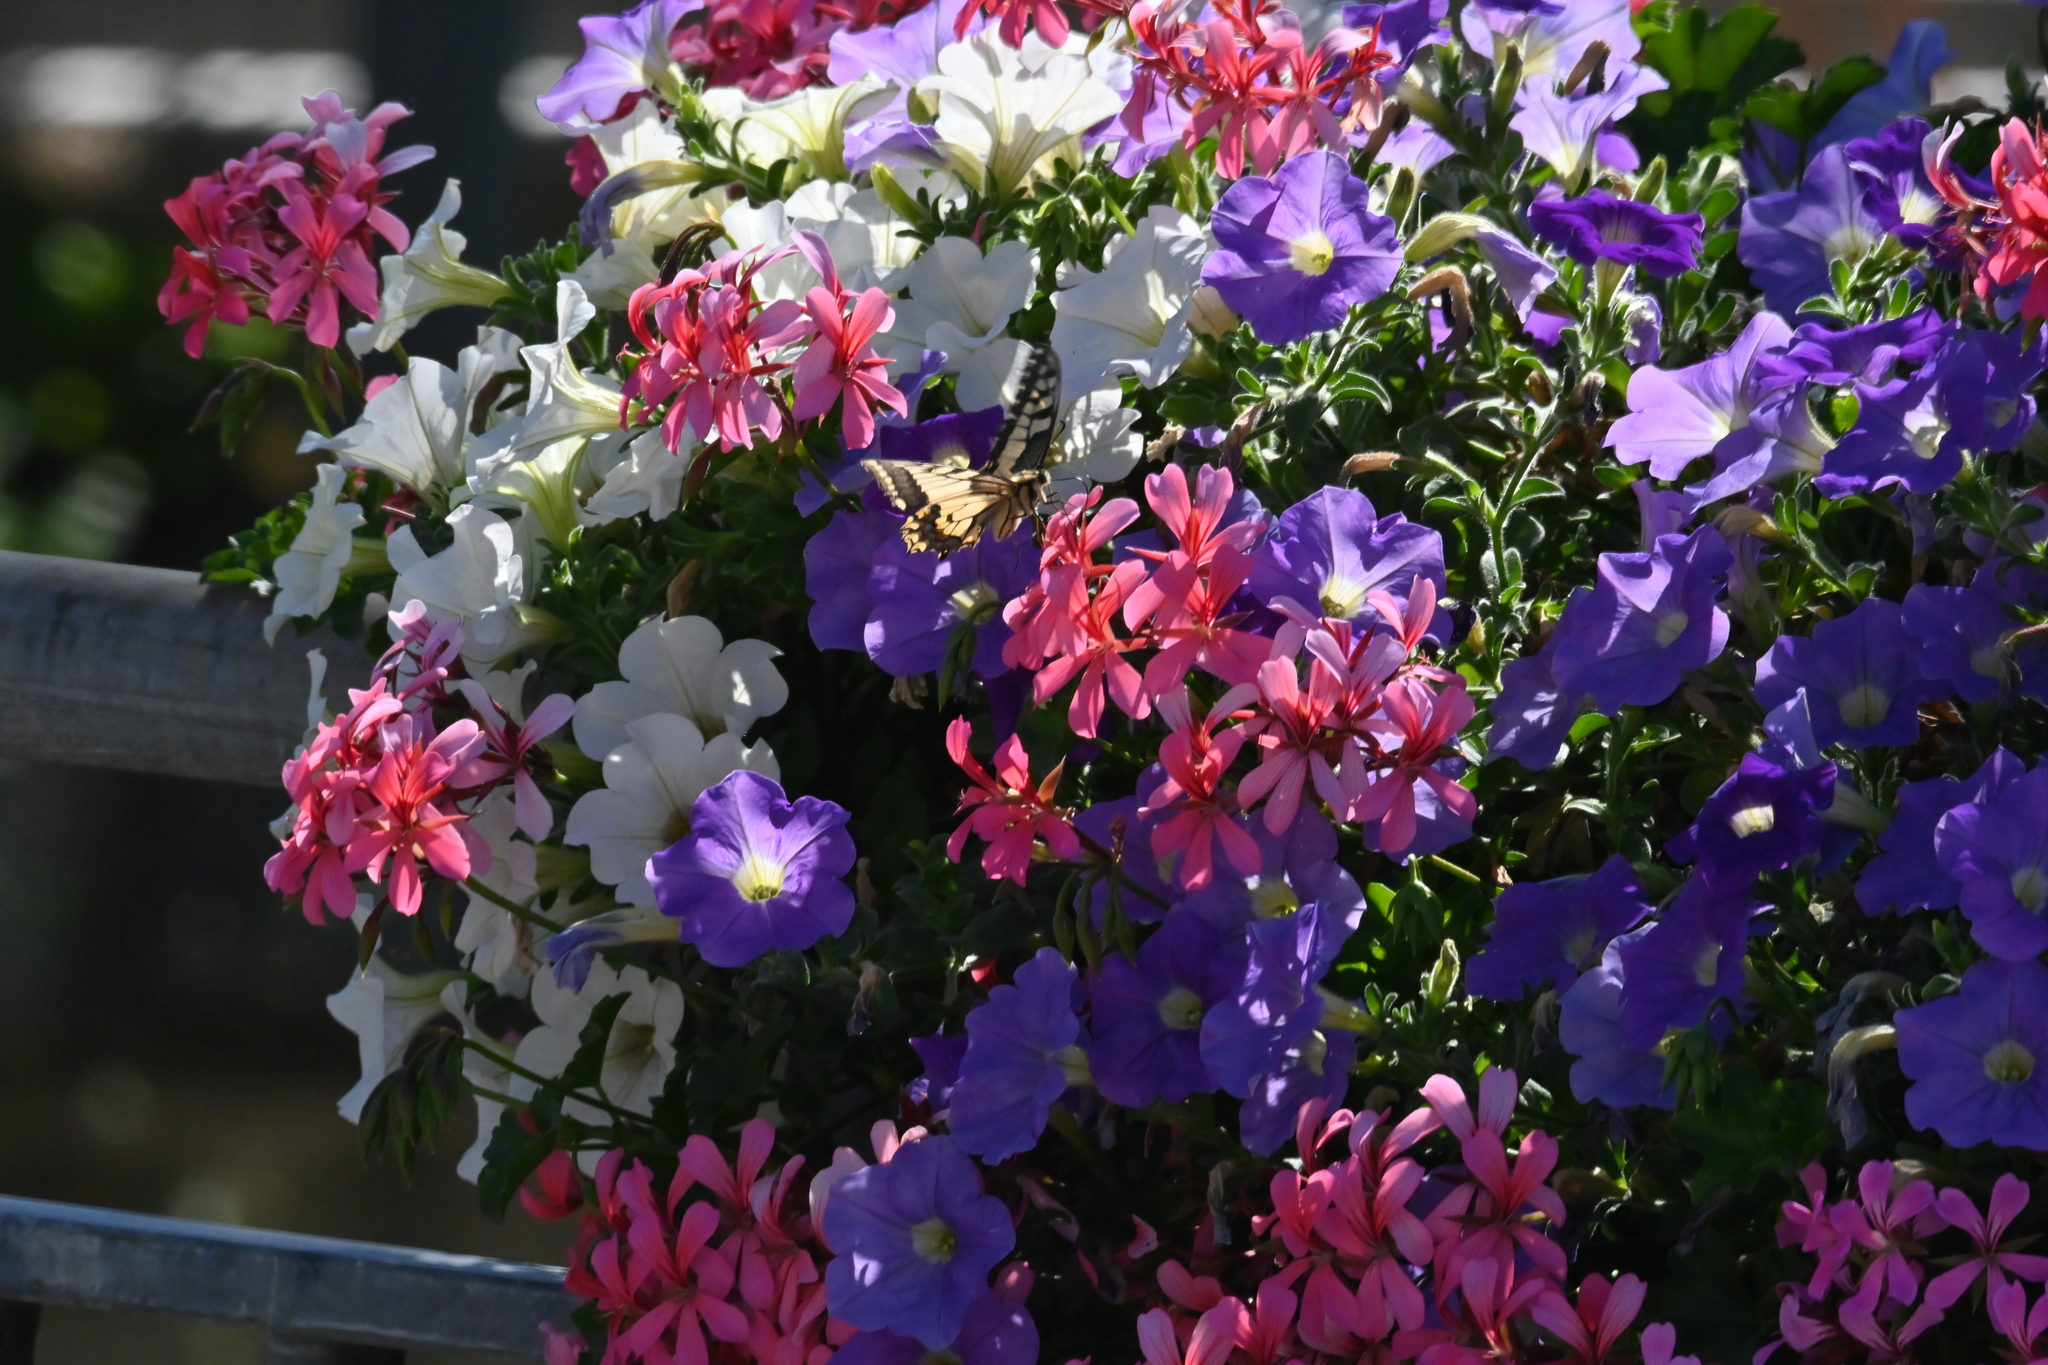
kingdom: Animalia
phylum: Arthropoda
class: Insecta
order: Lepidoptera
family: Papilionidae
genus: Papilio
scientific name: Papilio machaon
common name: Swallowtail
